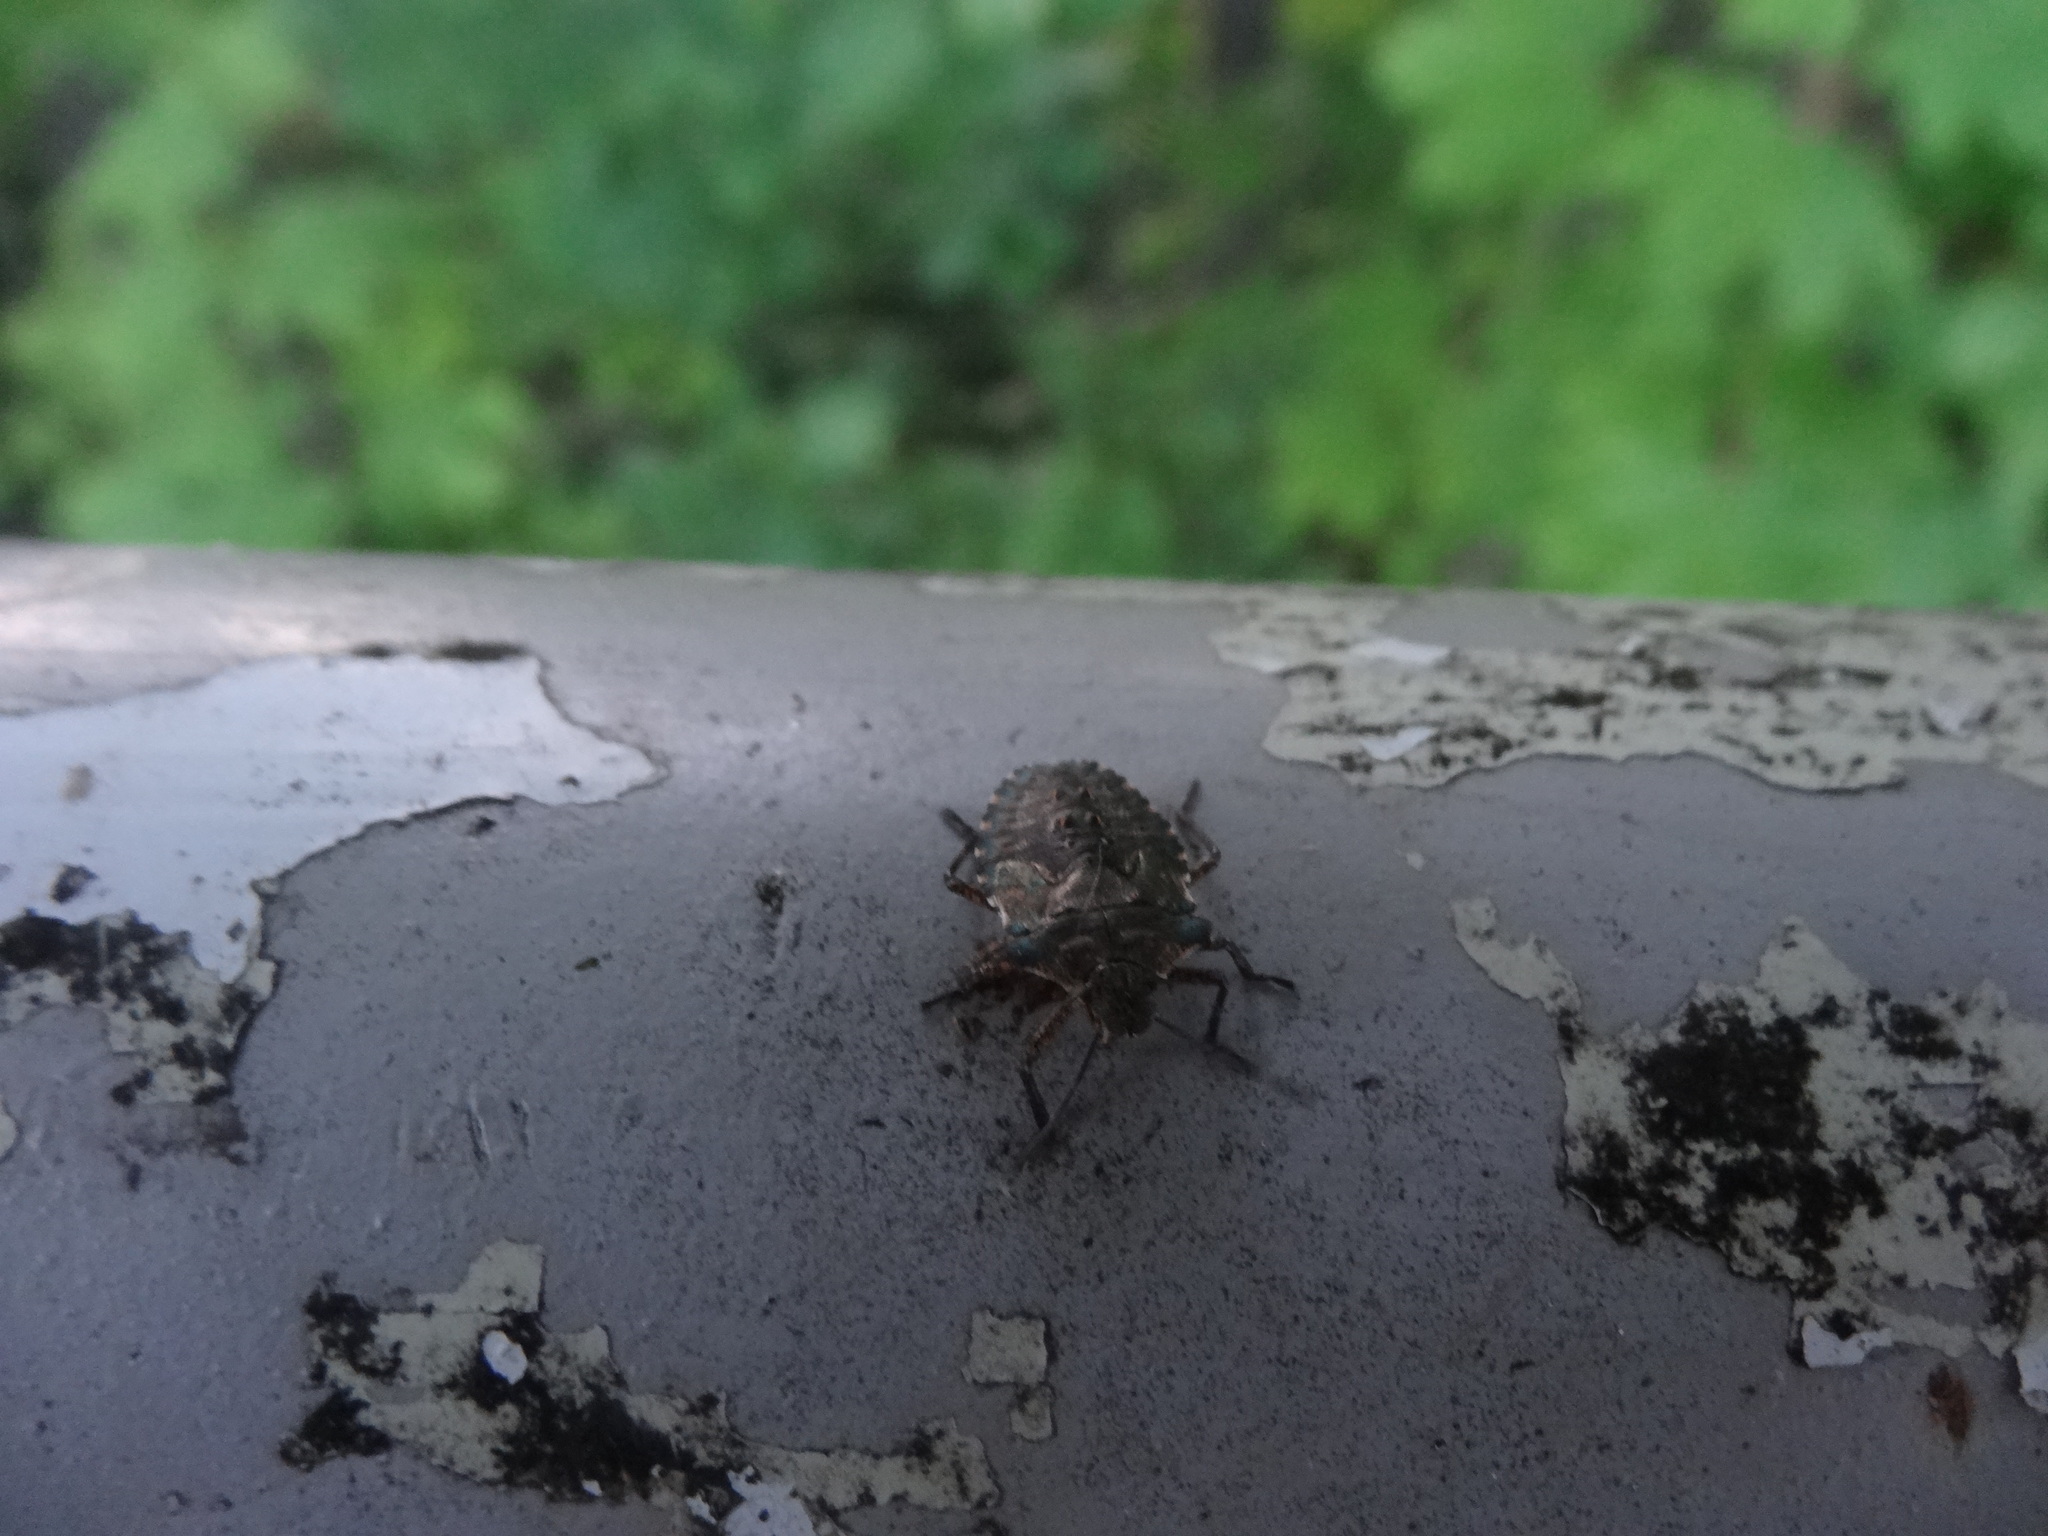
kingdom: Animalia
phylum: Arthropoda
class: Insecta
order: Hemiptera
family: Pentatomidae
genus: Pentatoma
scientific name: Pentatoma rufipes
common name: Forest bug
